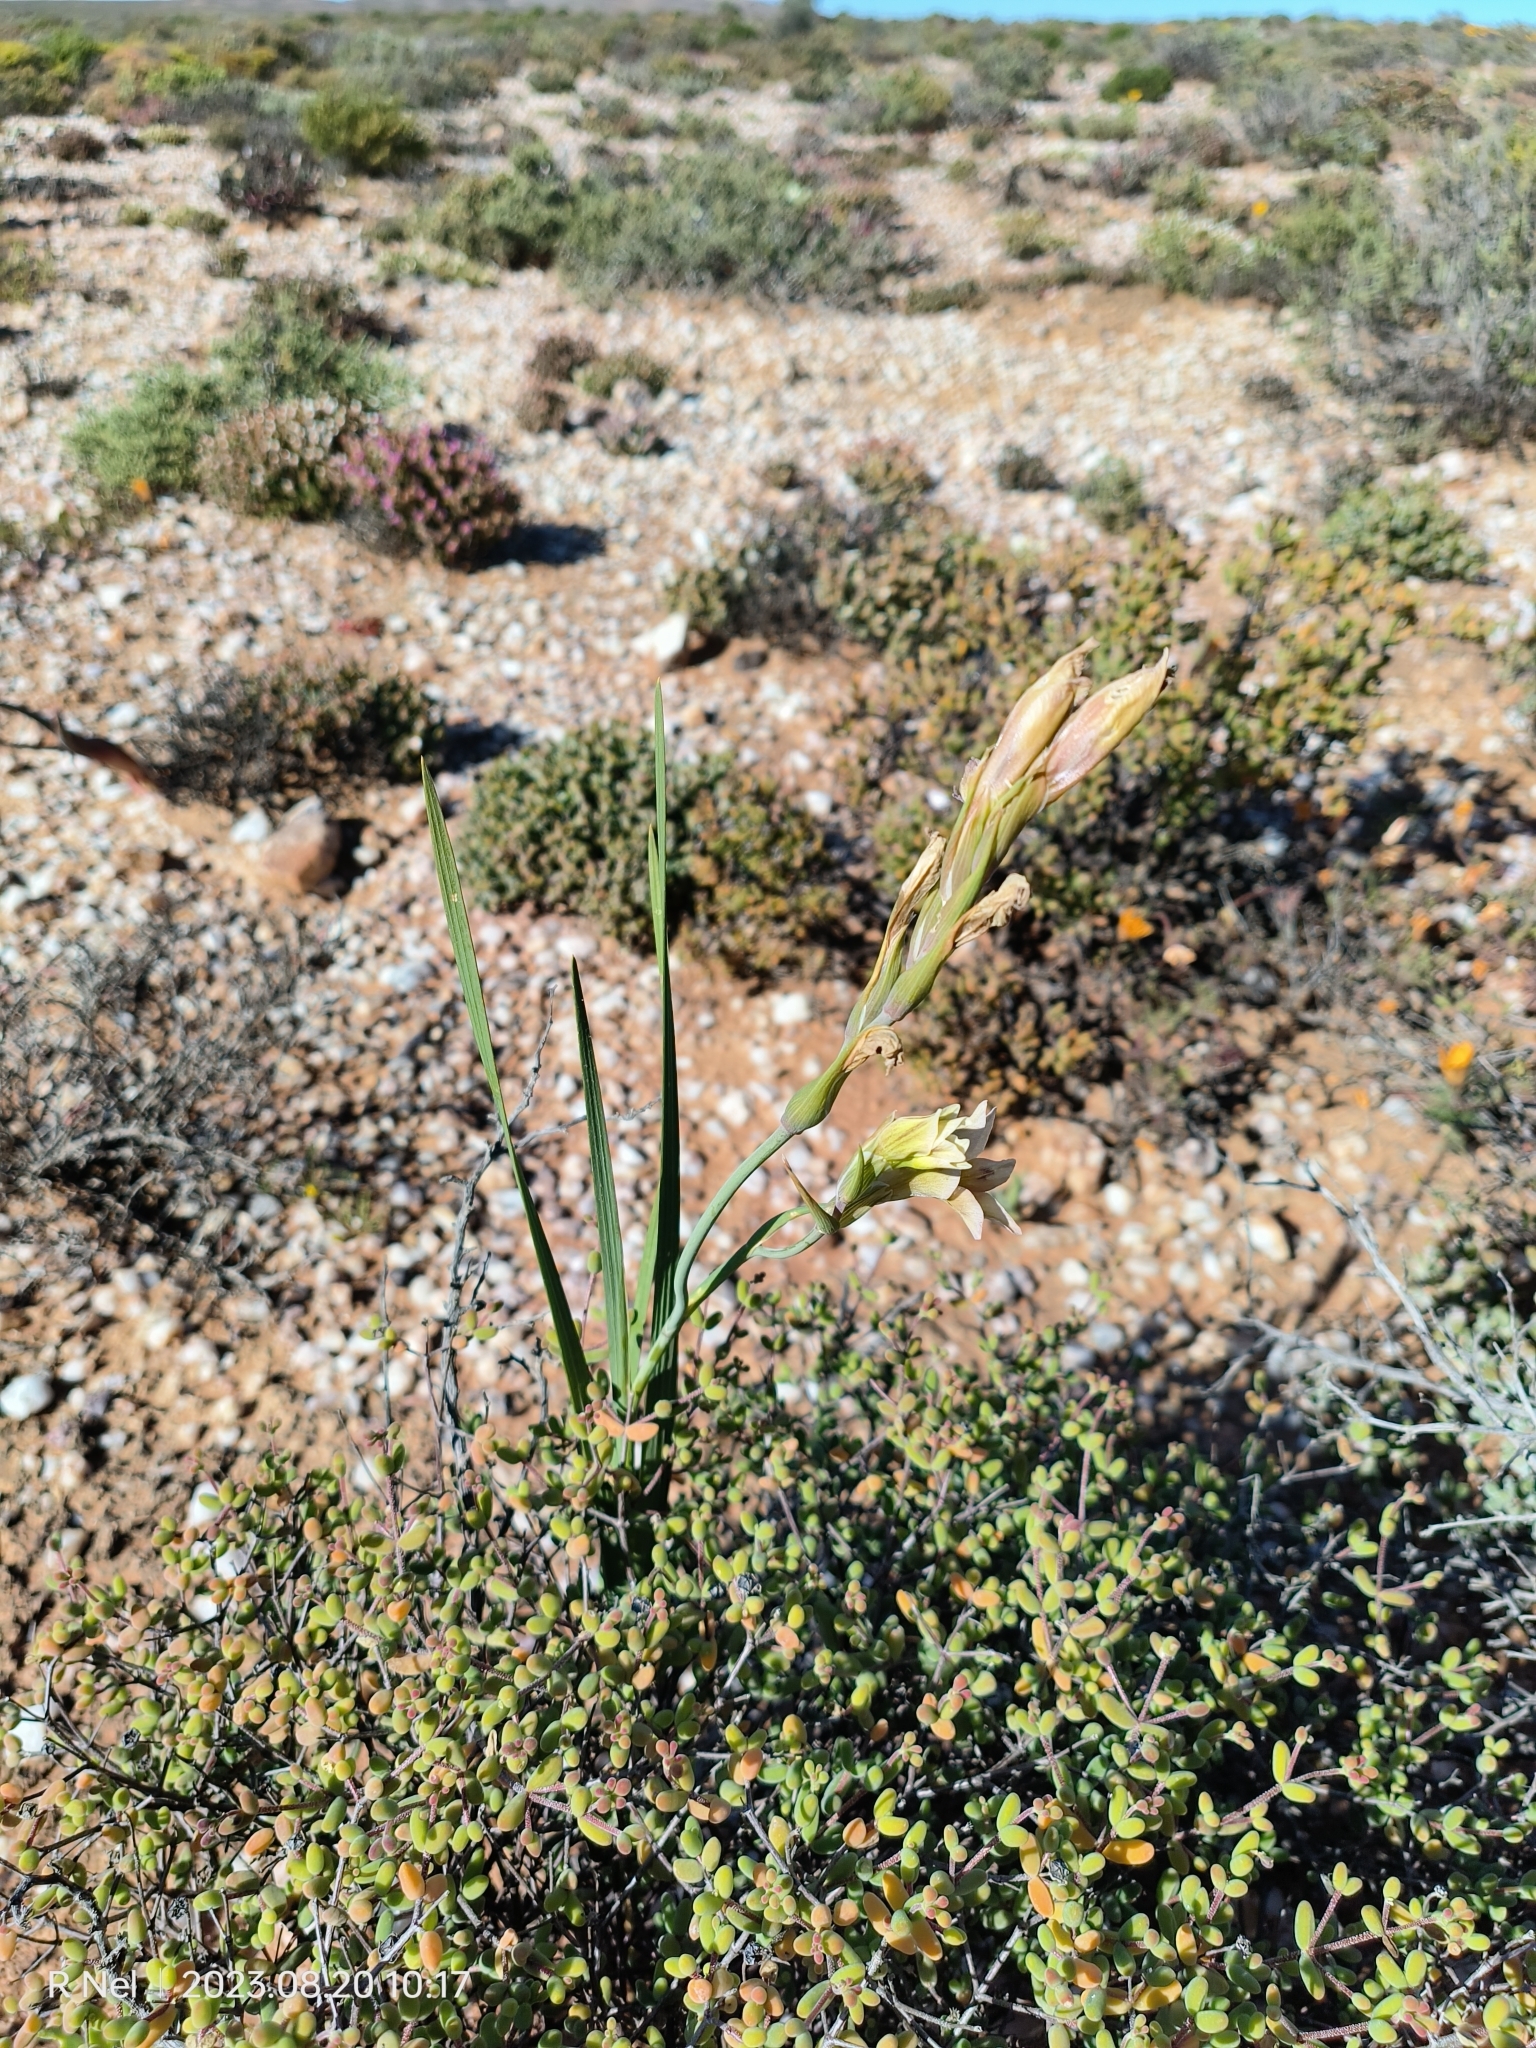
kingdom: Plantae
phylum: Tracheophyta
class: Liliopsida
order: Asparagales
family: Iridaceae
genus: Gladiolus
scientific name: Gladiolus scullyi
